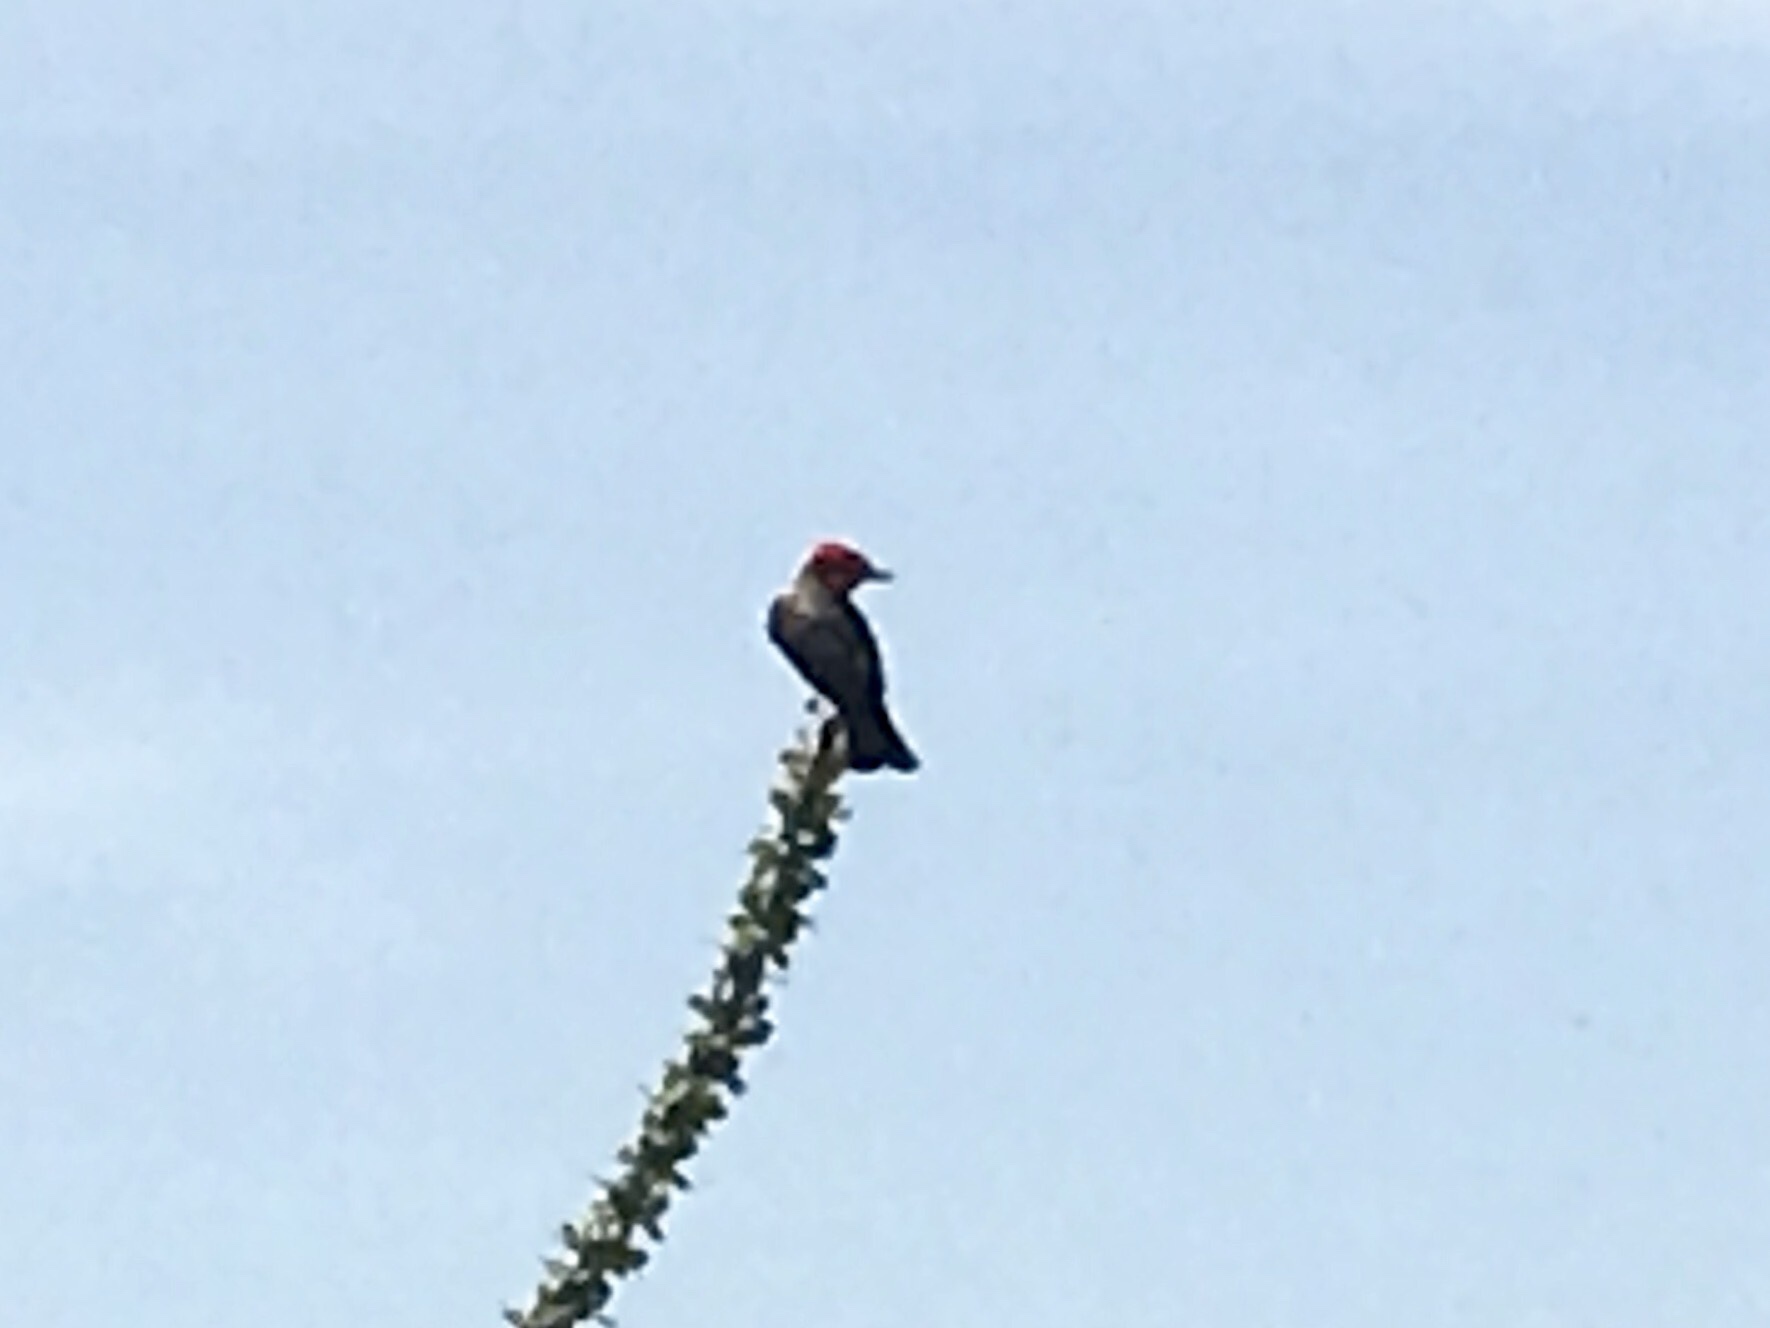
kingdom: Animalia
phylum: Chordata
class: Aves
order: Passeriformes
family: Tyrannidae
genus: Pyrocephalus
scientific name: Pyrocephalus rubinus
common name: Vermilion flycatcher
